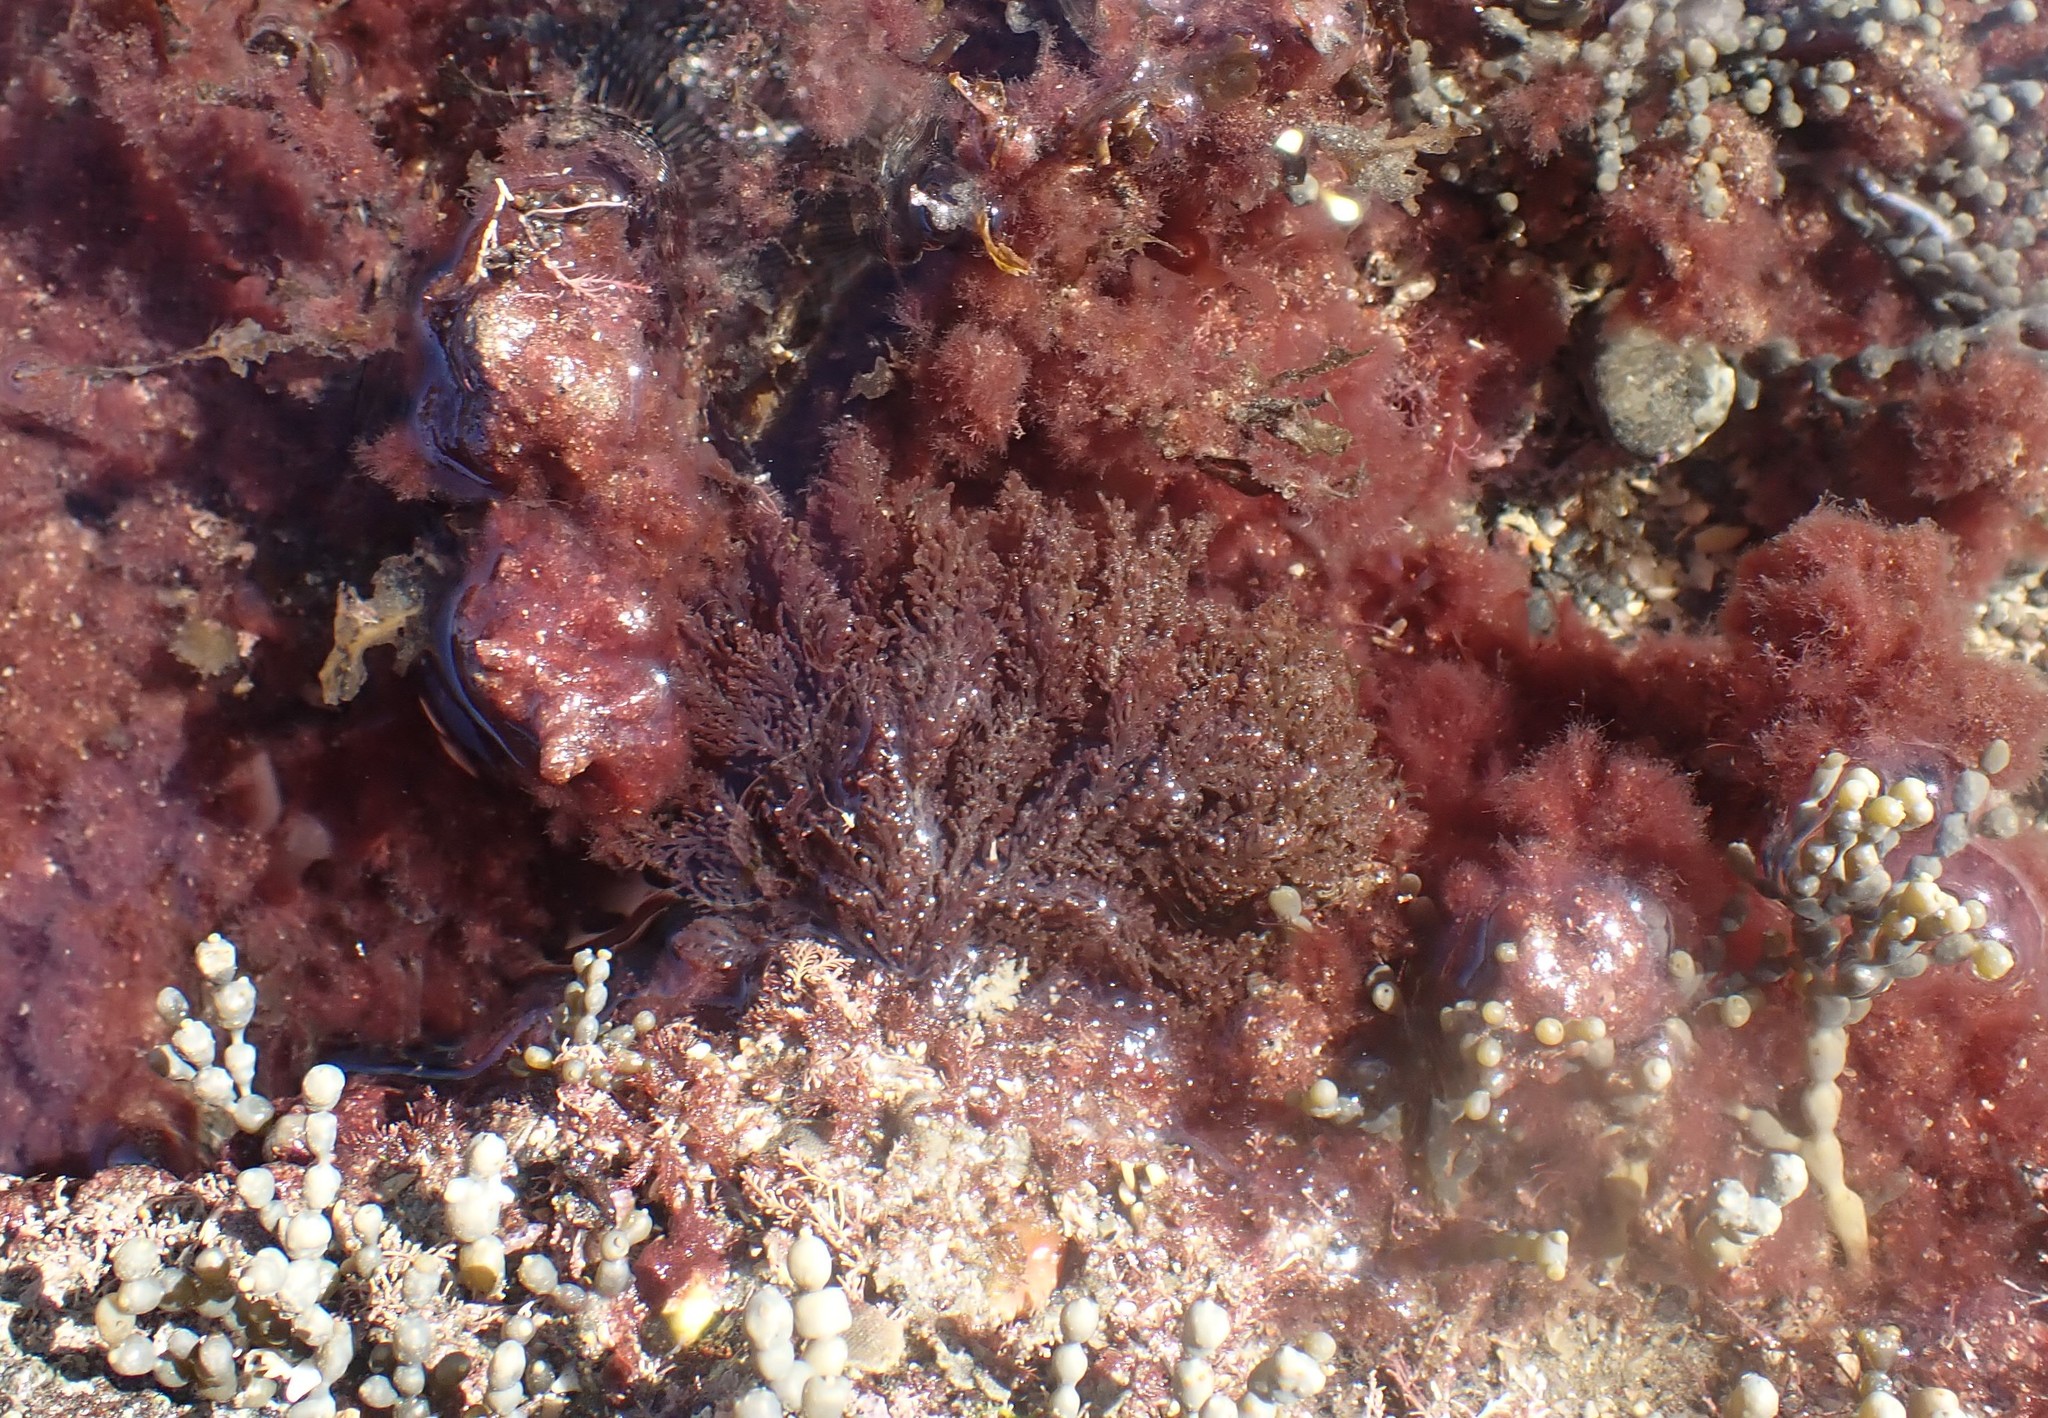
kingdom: Plantae
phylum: Rhodophyta
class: Florideophyceae
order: Ceramiales
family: Rhodomelaceae
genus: Laurencia
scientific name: Laurencia distichophylla
